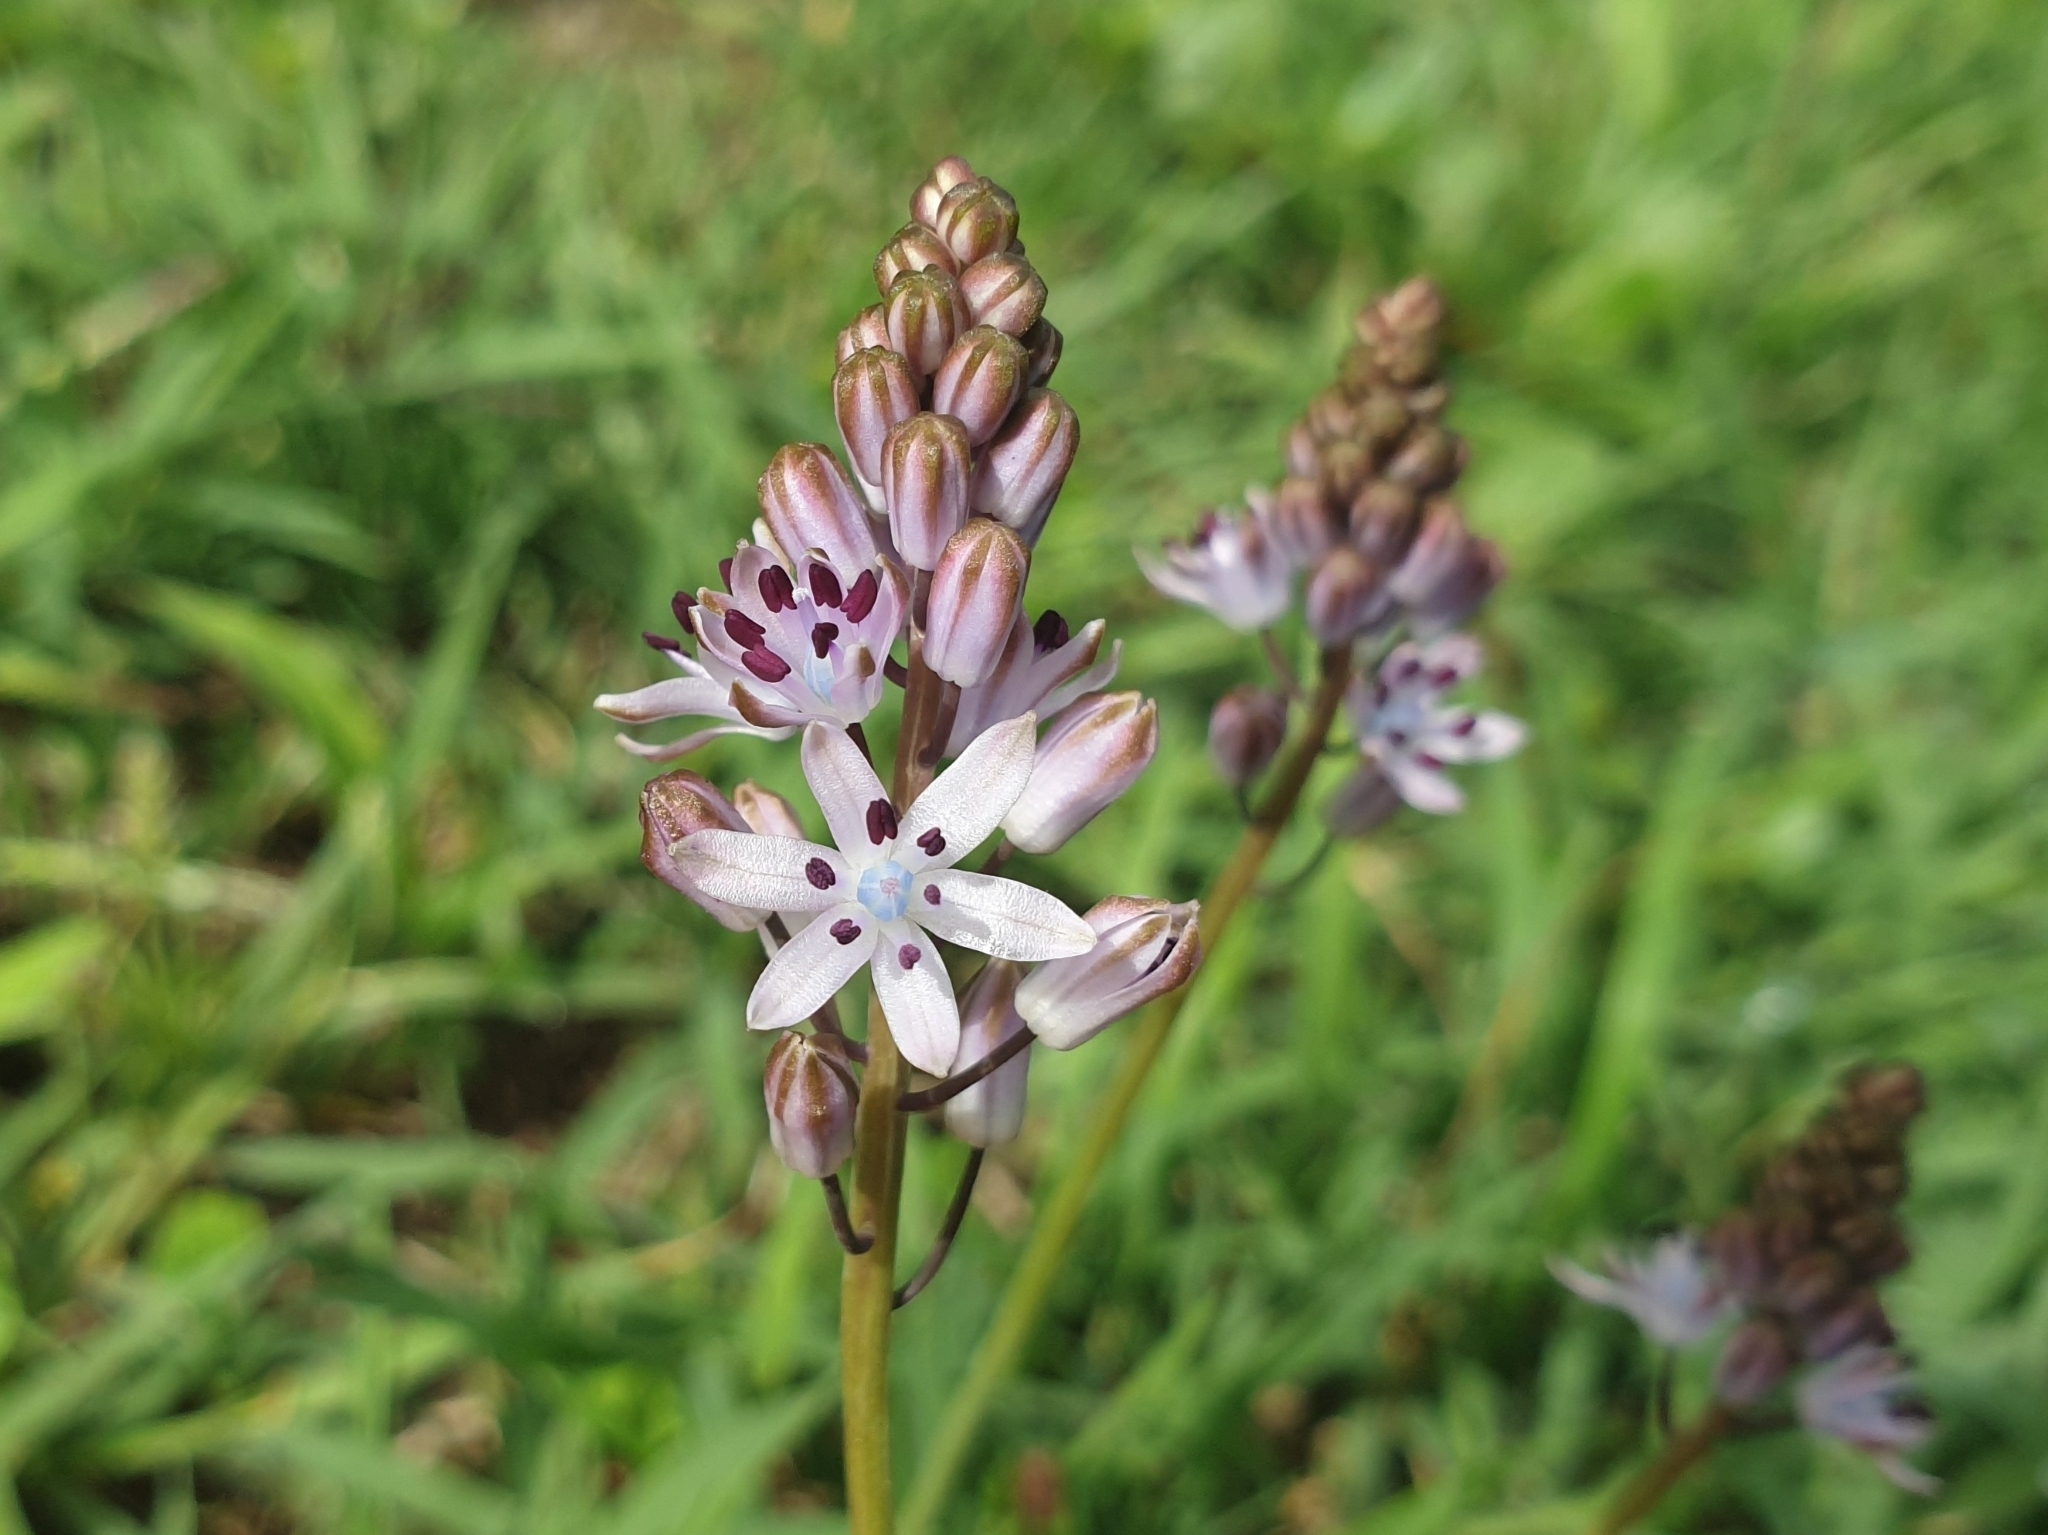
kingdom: Plantae
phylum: Tracheophyta
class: Liliopsida
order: Asparagales
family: Asparagaceae
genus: Prospero
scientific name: Prospero autumnale
